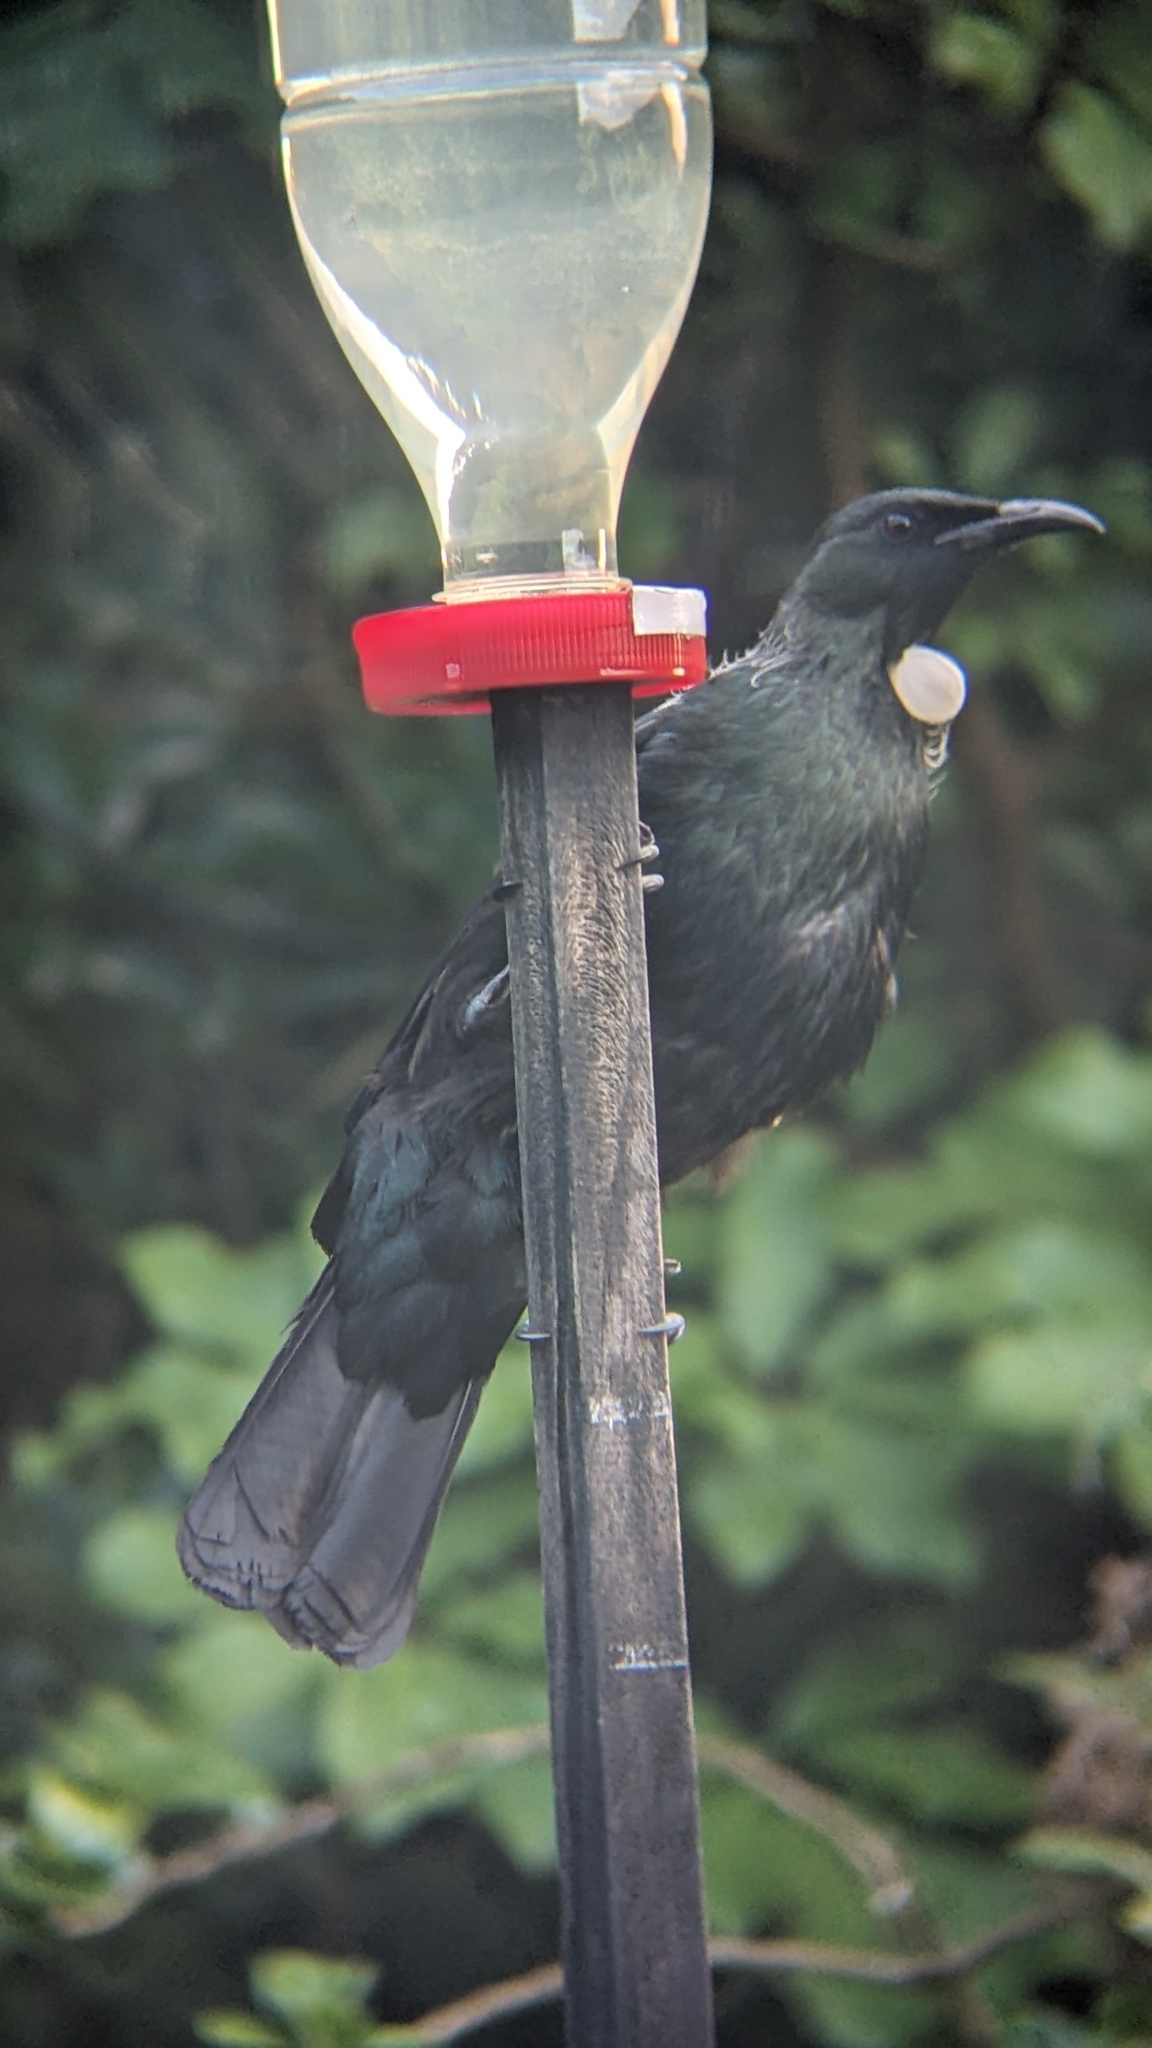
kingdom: Animalia
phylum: Chordata
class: Aves
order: Passeriformes
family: Meliphagidae
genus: Prosthemadera
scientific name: Prosthemadera novaeseelandiae
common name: Tui
